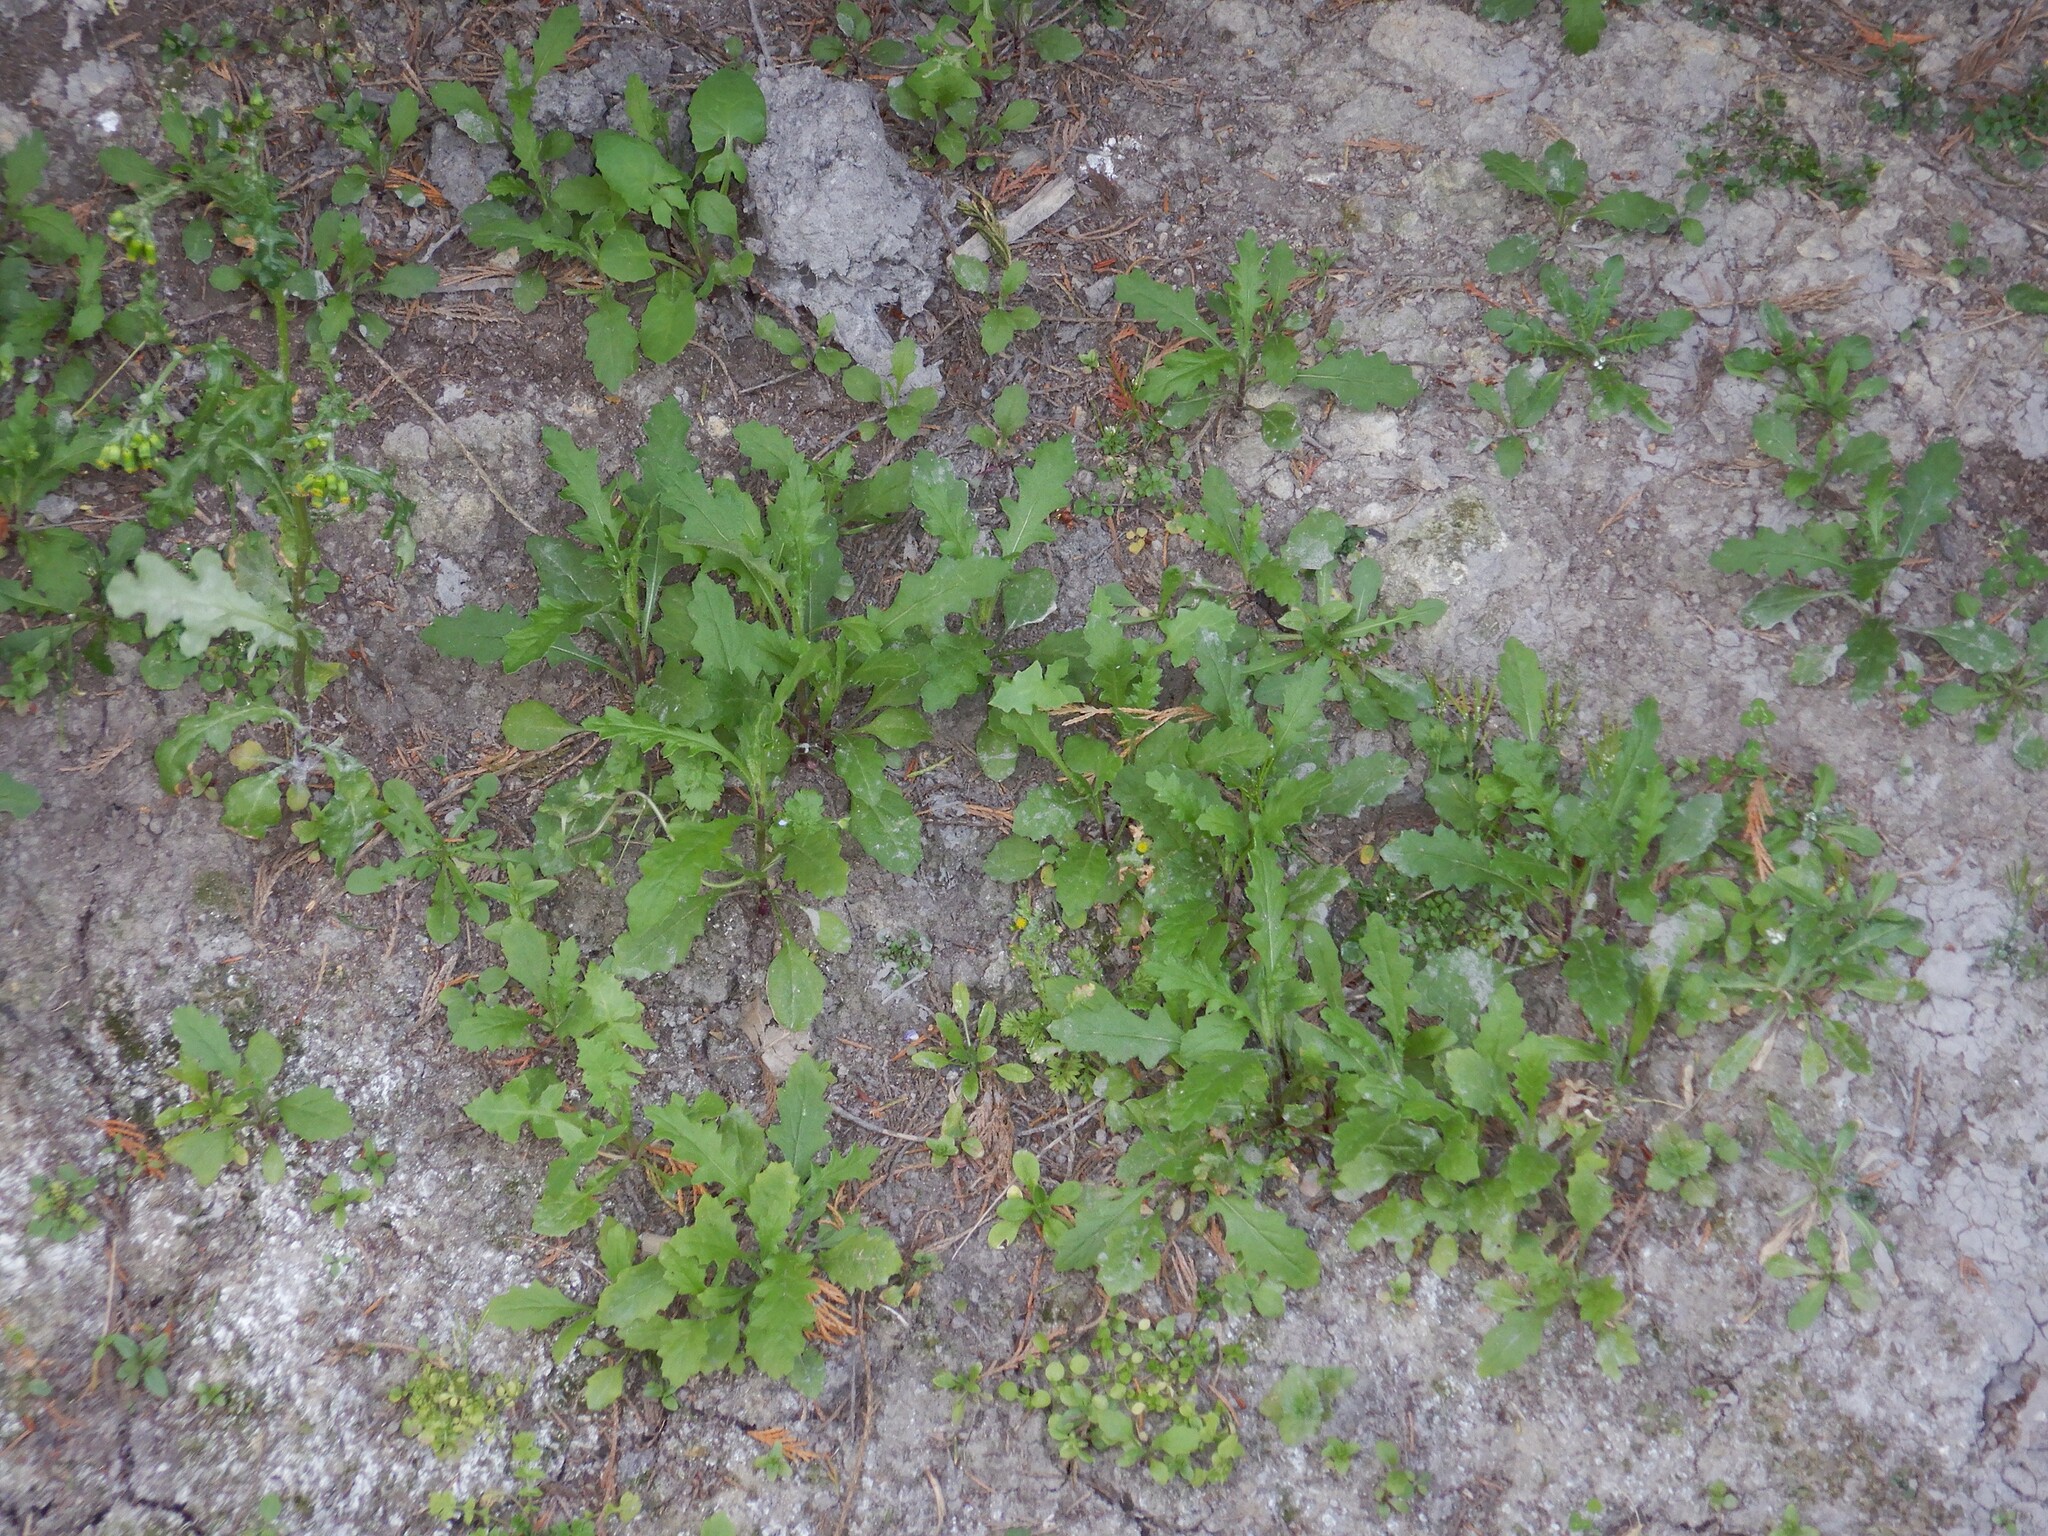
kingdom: Plantae
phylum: Tracheophyta
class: Magnoliopsida
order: Asterales
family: Asteraceae
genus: Senecio
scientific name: Senecio hispidulus
